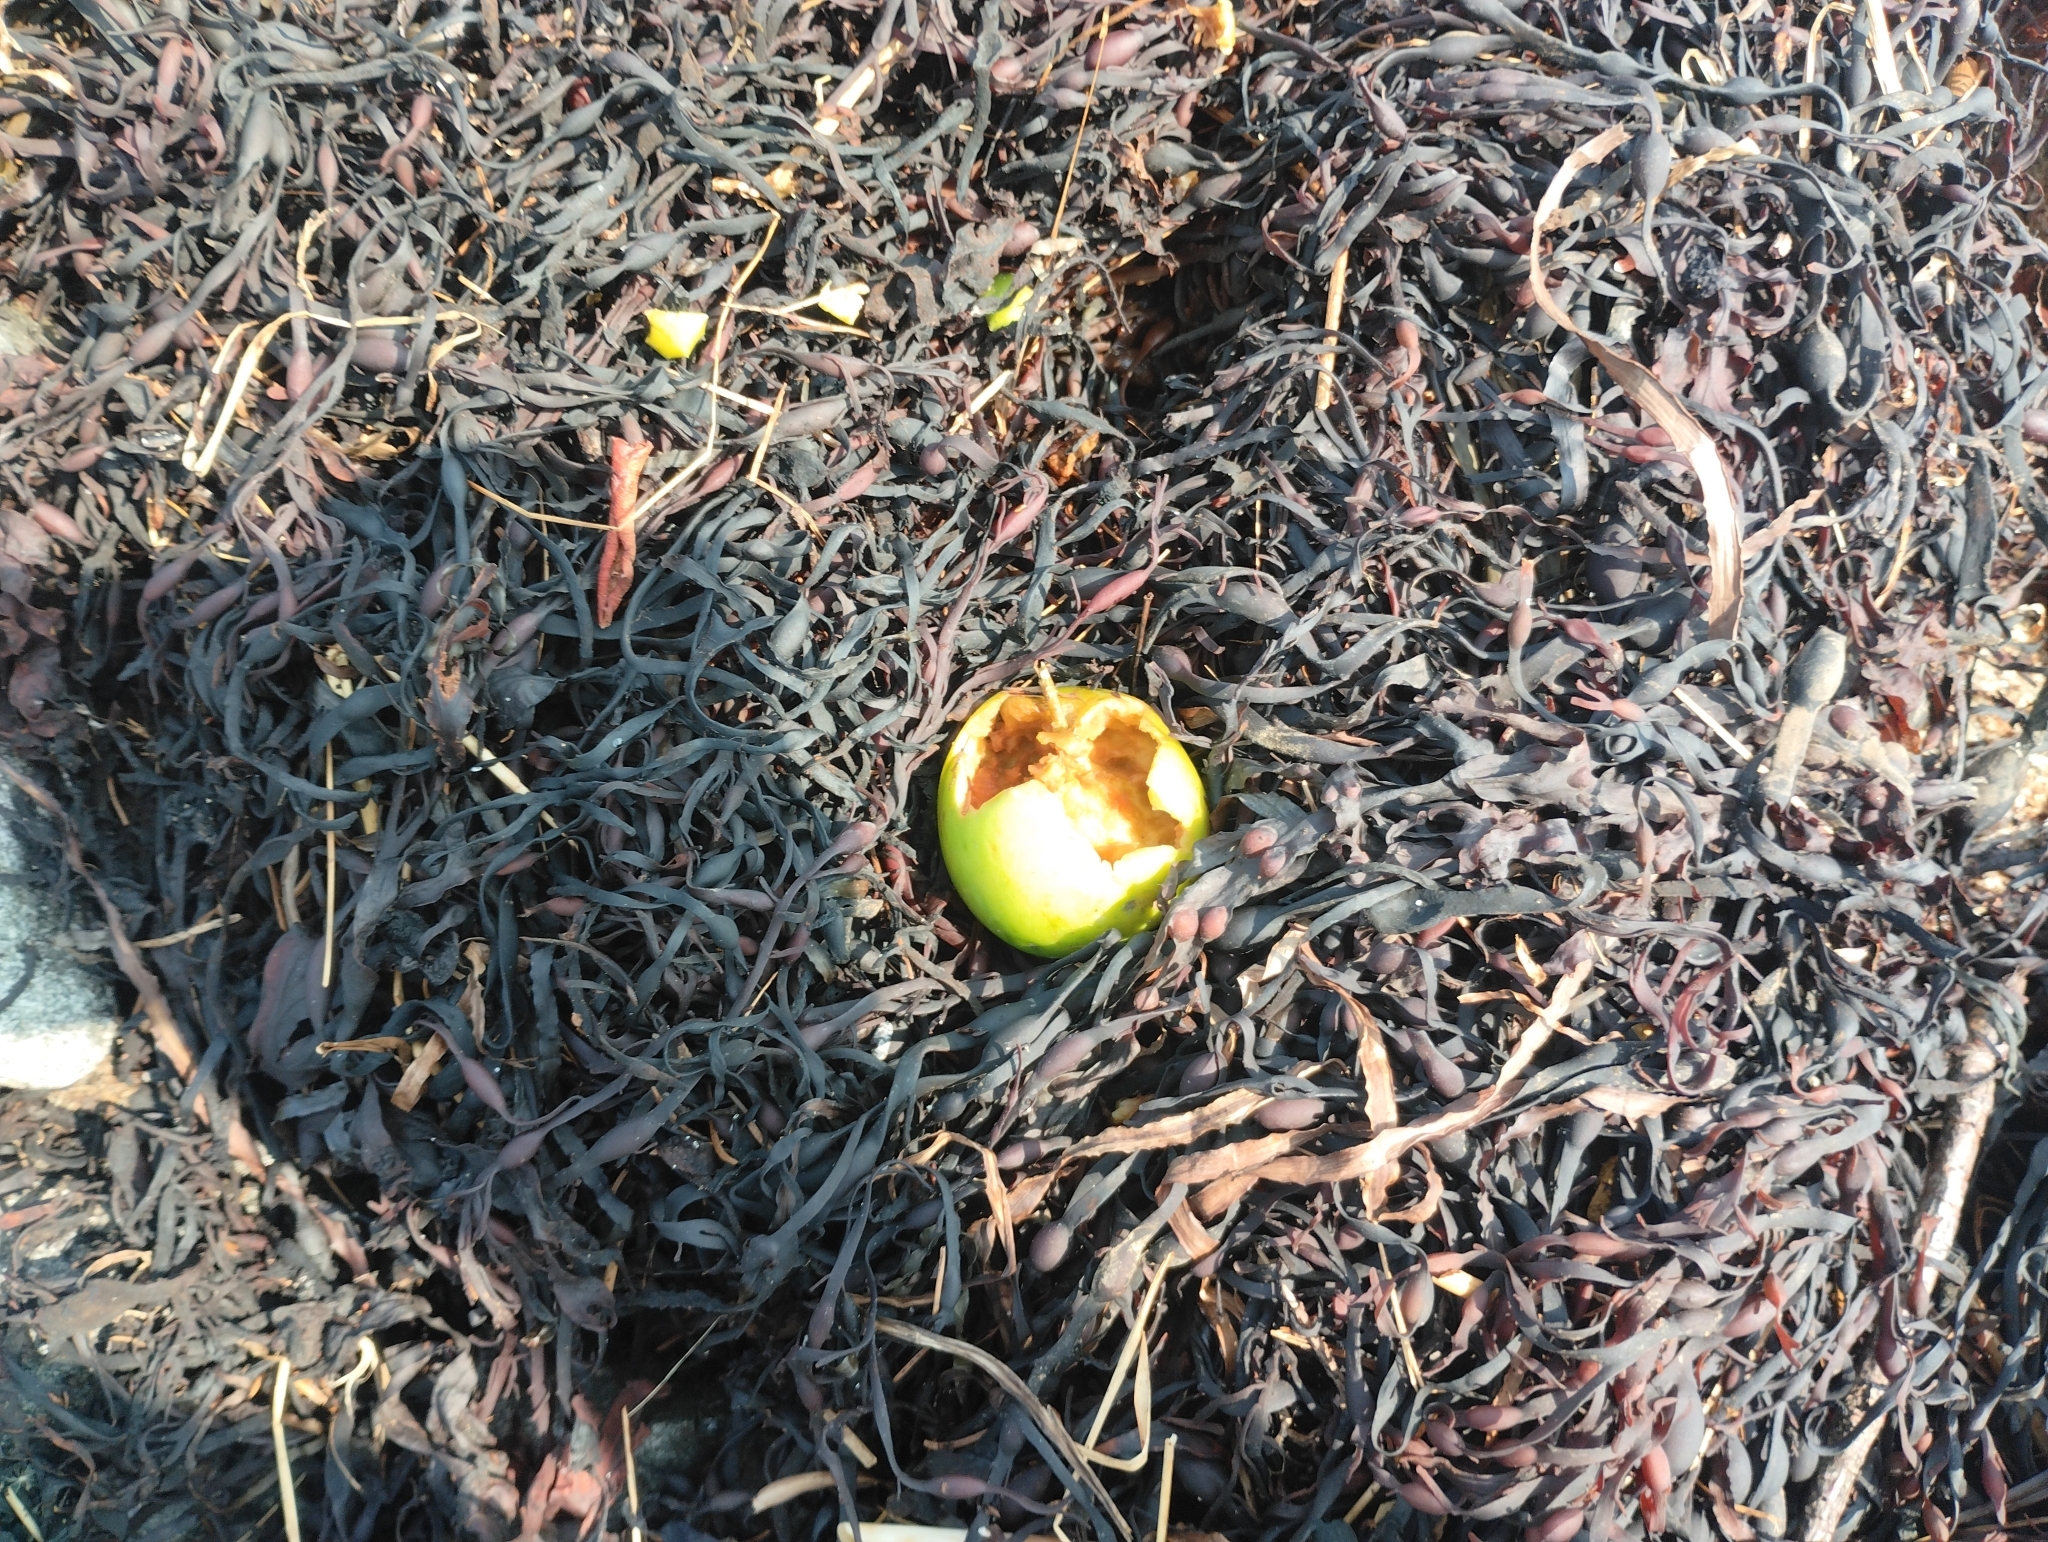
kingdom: Plantae
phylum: Tracheophyta
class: Magnoliopsida
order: Rosales
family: Rosaceae
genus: Malus
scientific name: Malus domestica
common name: Apple
